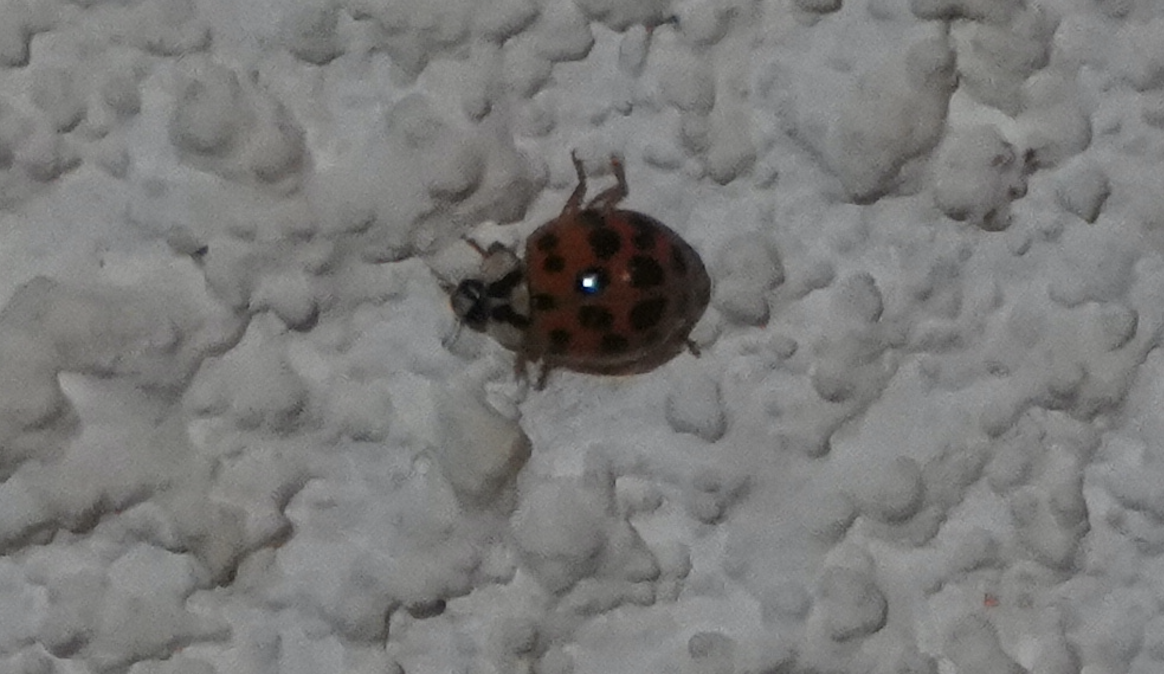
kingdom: Animalia
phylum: Arthropoda
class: Insecta
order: Coleoptera
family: Coccinellidae
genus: Harmonia
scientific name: Harmonia axyridis
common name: Harlequin ladybird
